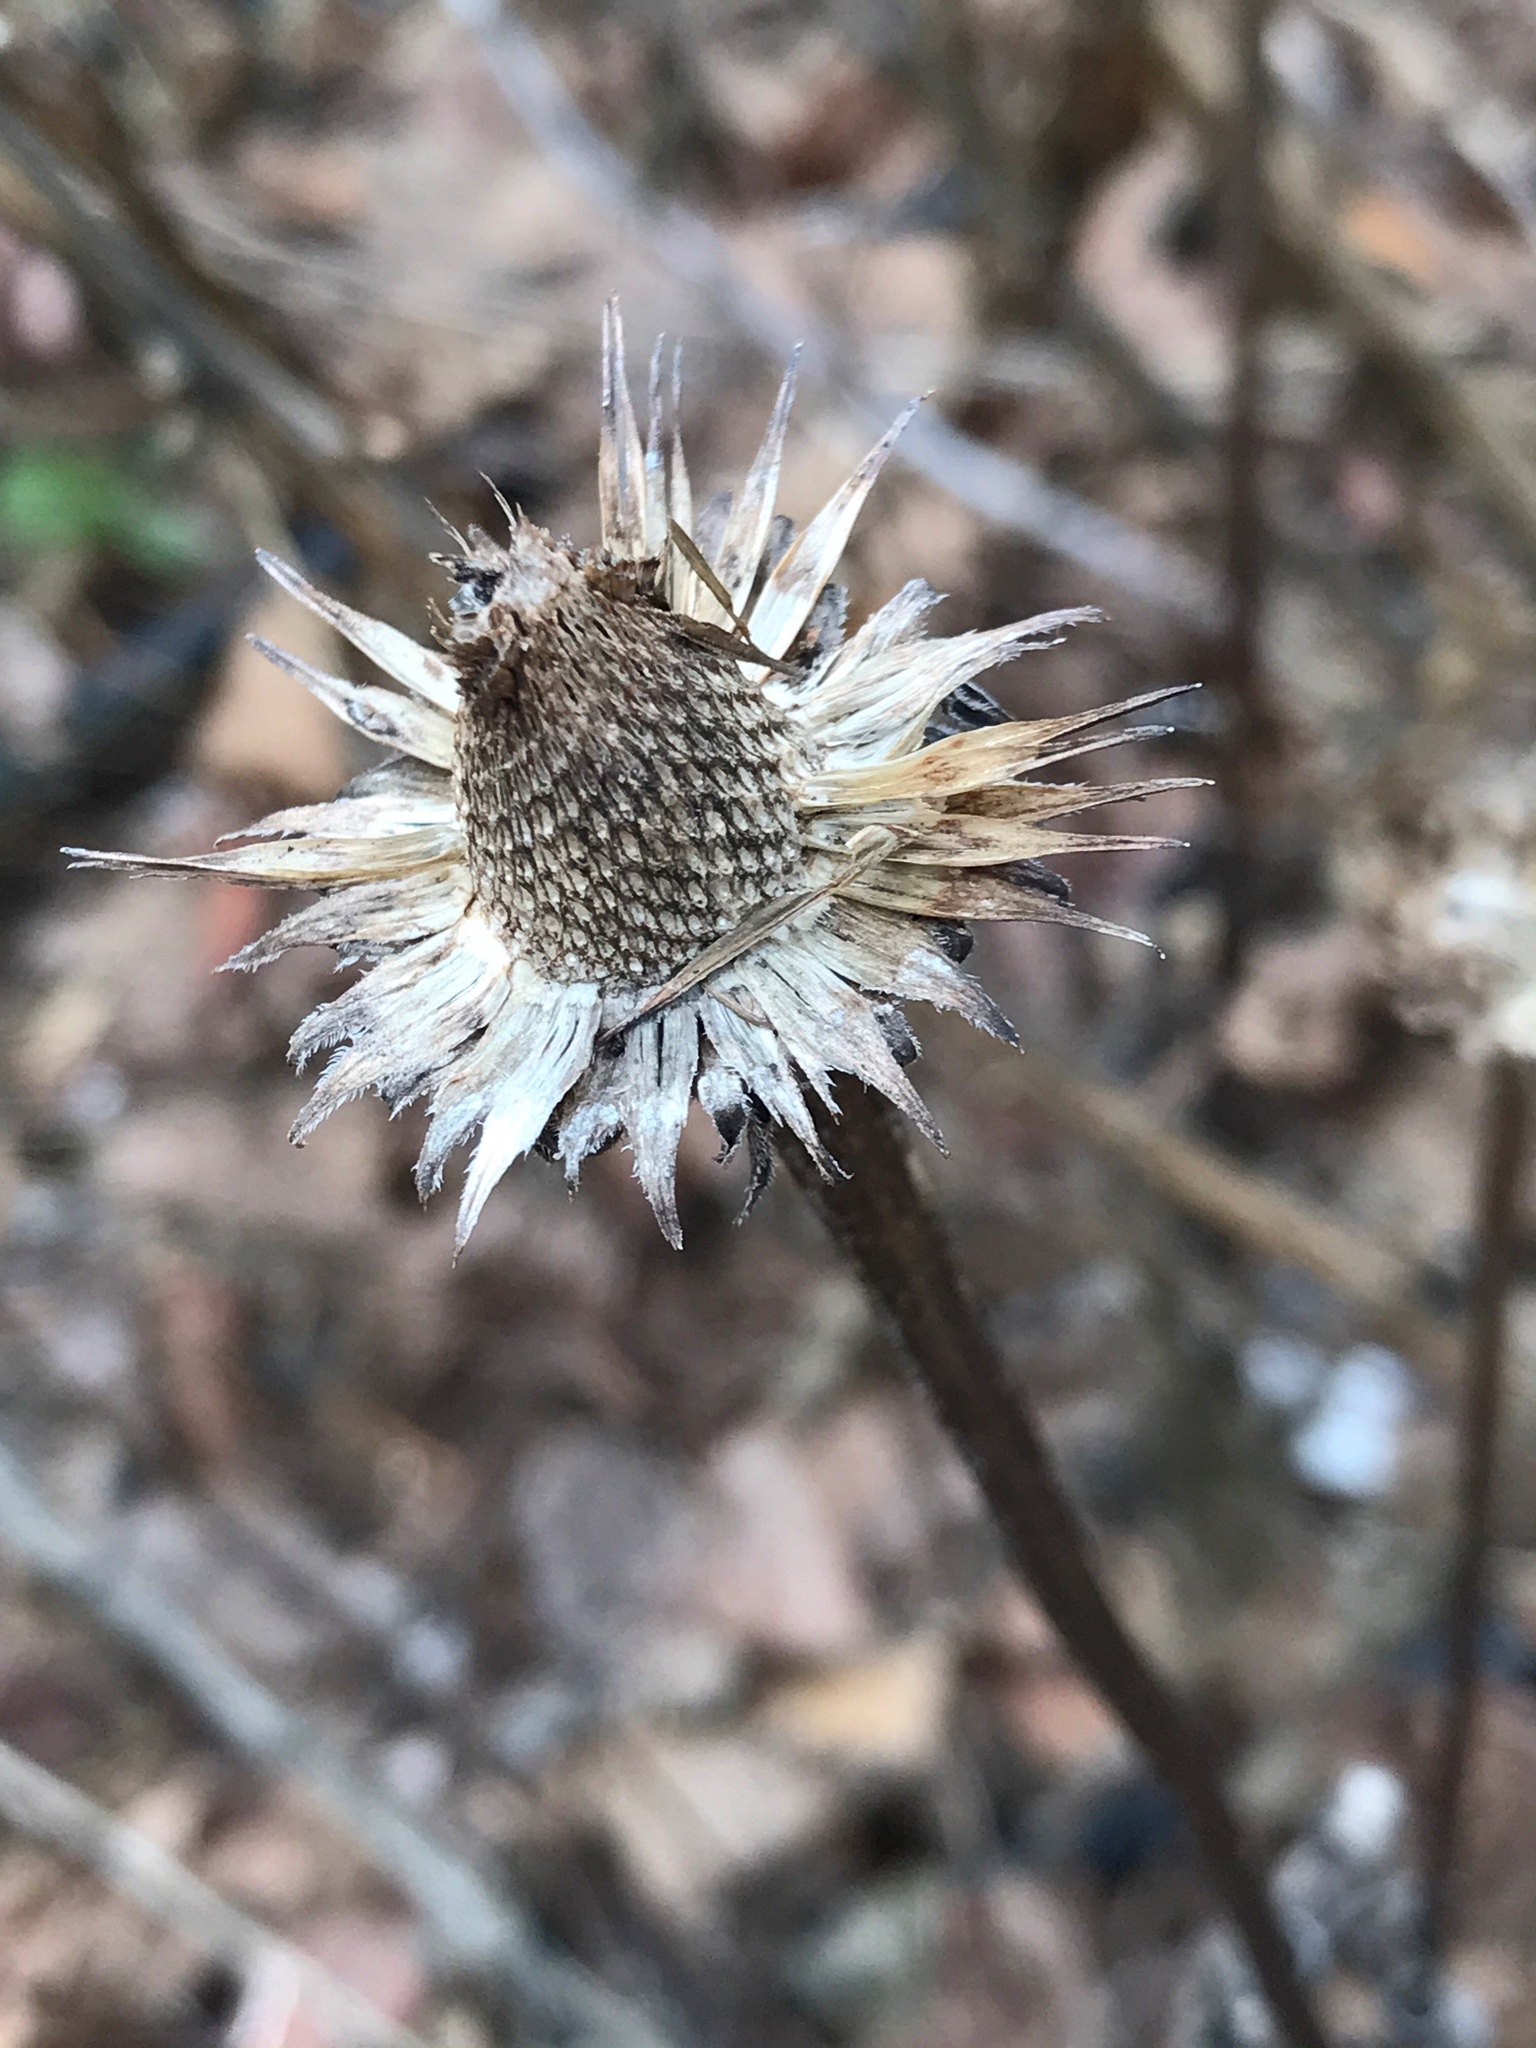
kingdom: Plantae
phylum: Tracheophyta
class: Magnoliopsida
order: Asterales
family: Asteraceae
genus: Echinacea
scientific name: Echinacea purpurea
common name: Broad-leaved purple coneflower
